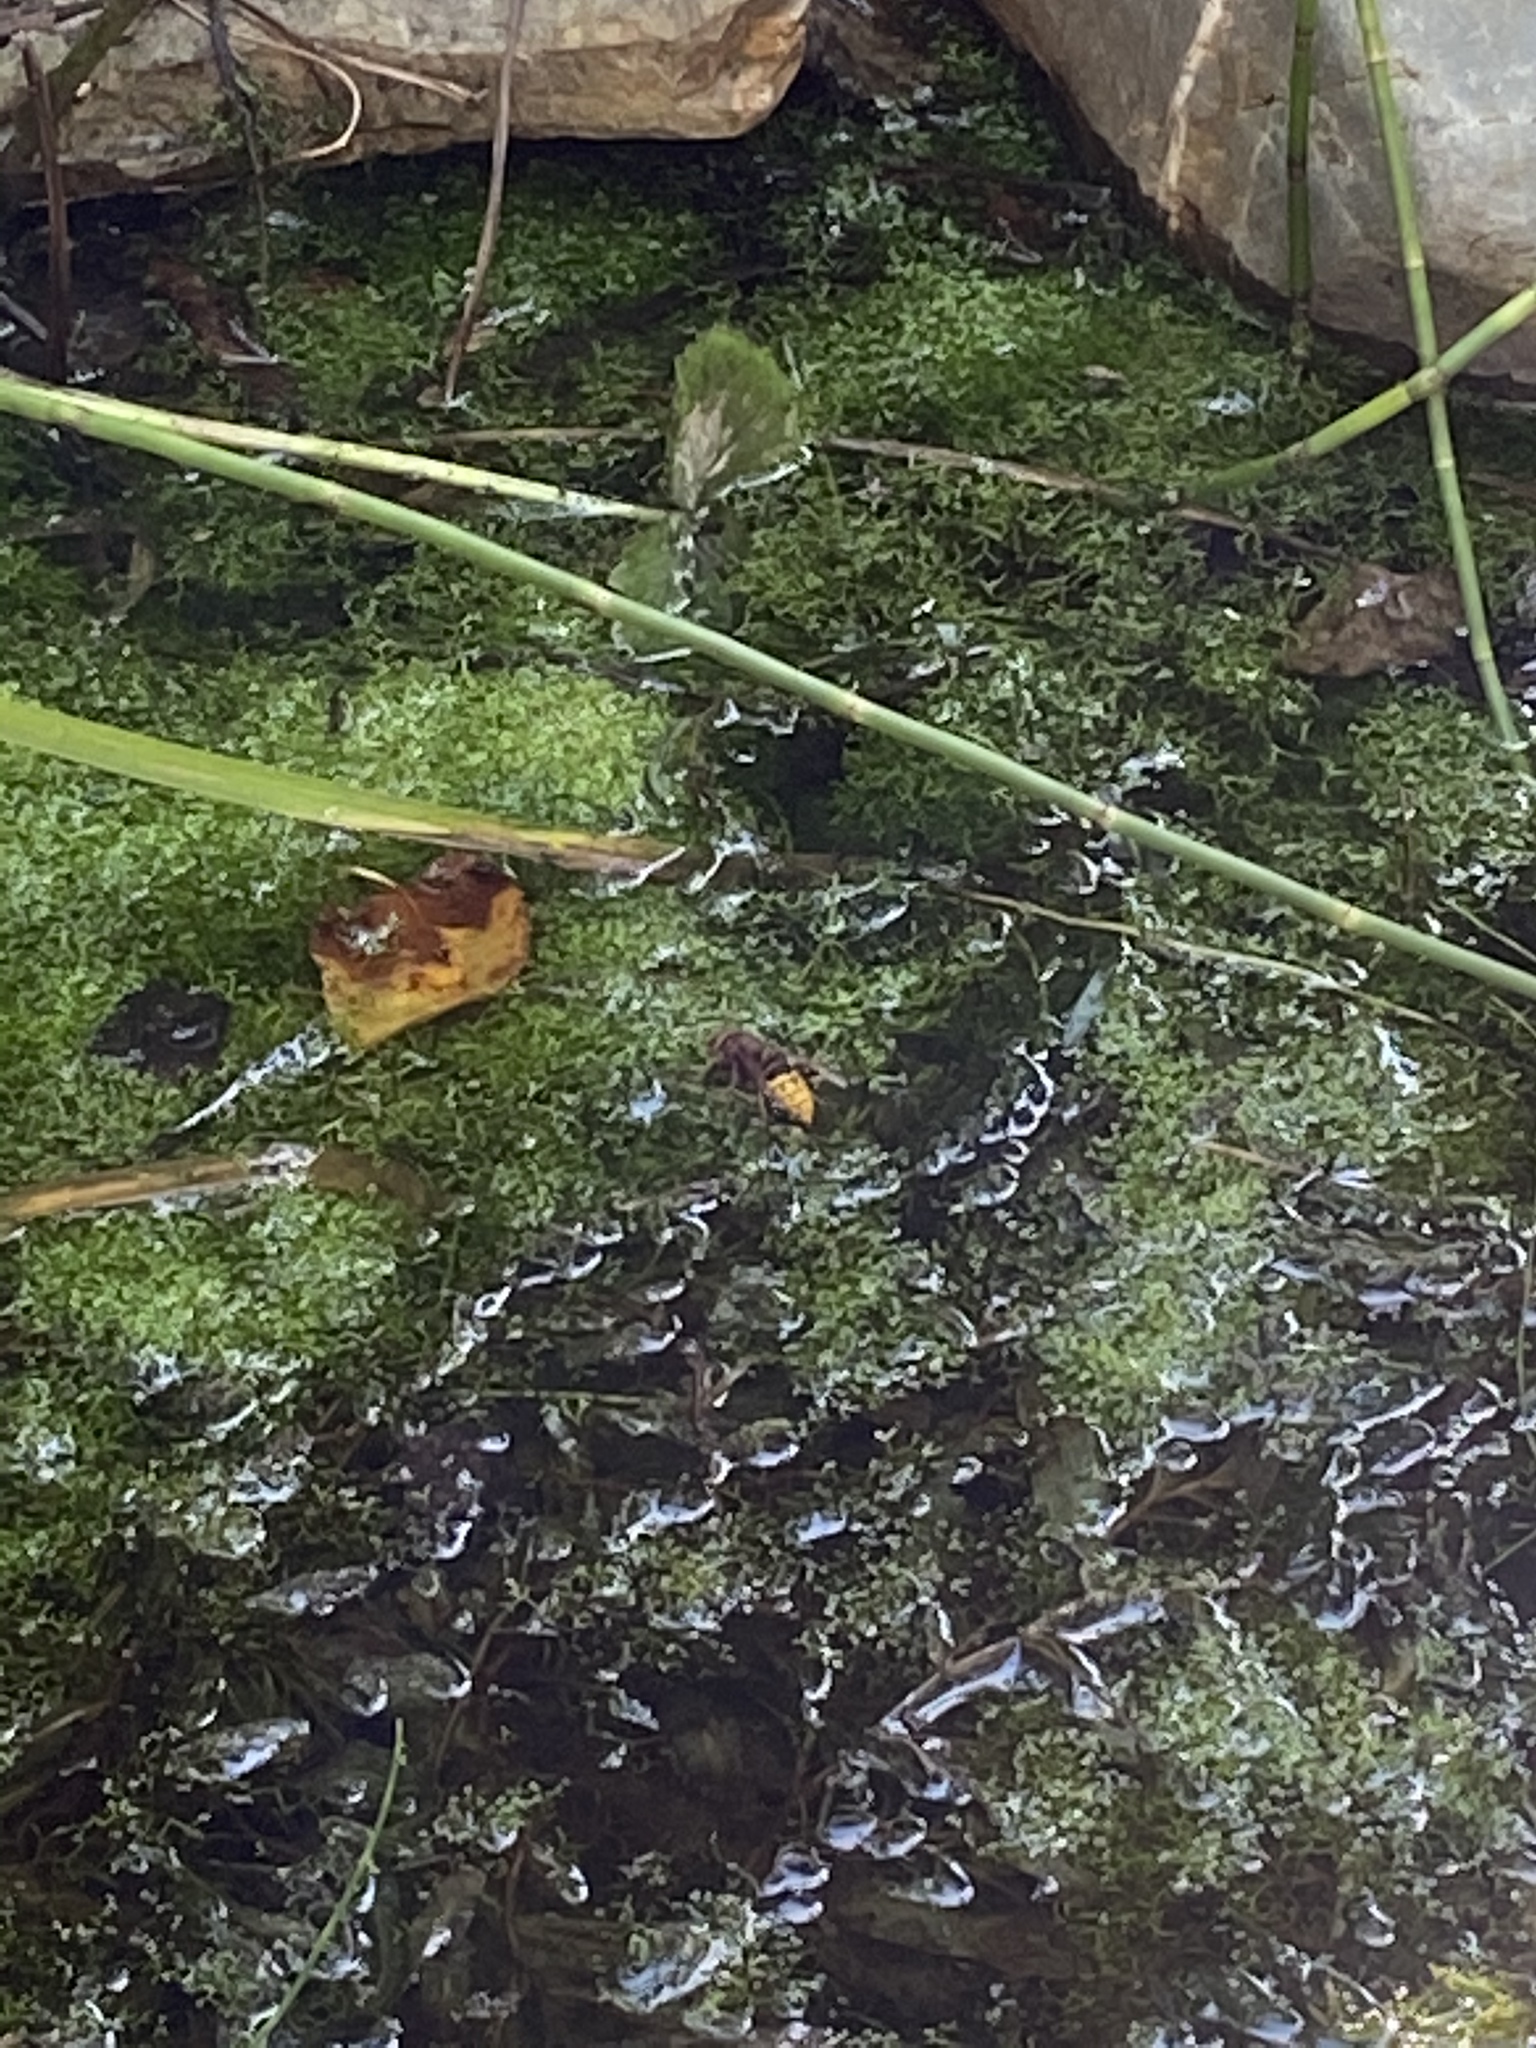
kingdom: Animalia
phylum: Arthropoda
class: Insecta
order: Hymenoptera
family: Vespidae
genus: Vespa
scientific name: Vespa crabro
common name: Hornet
